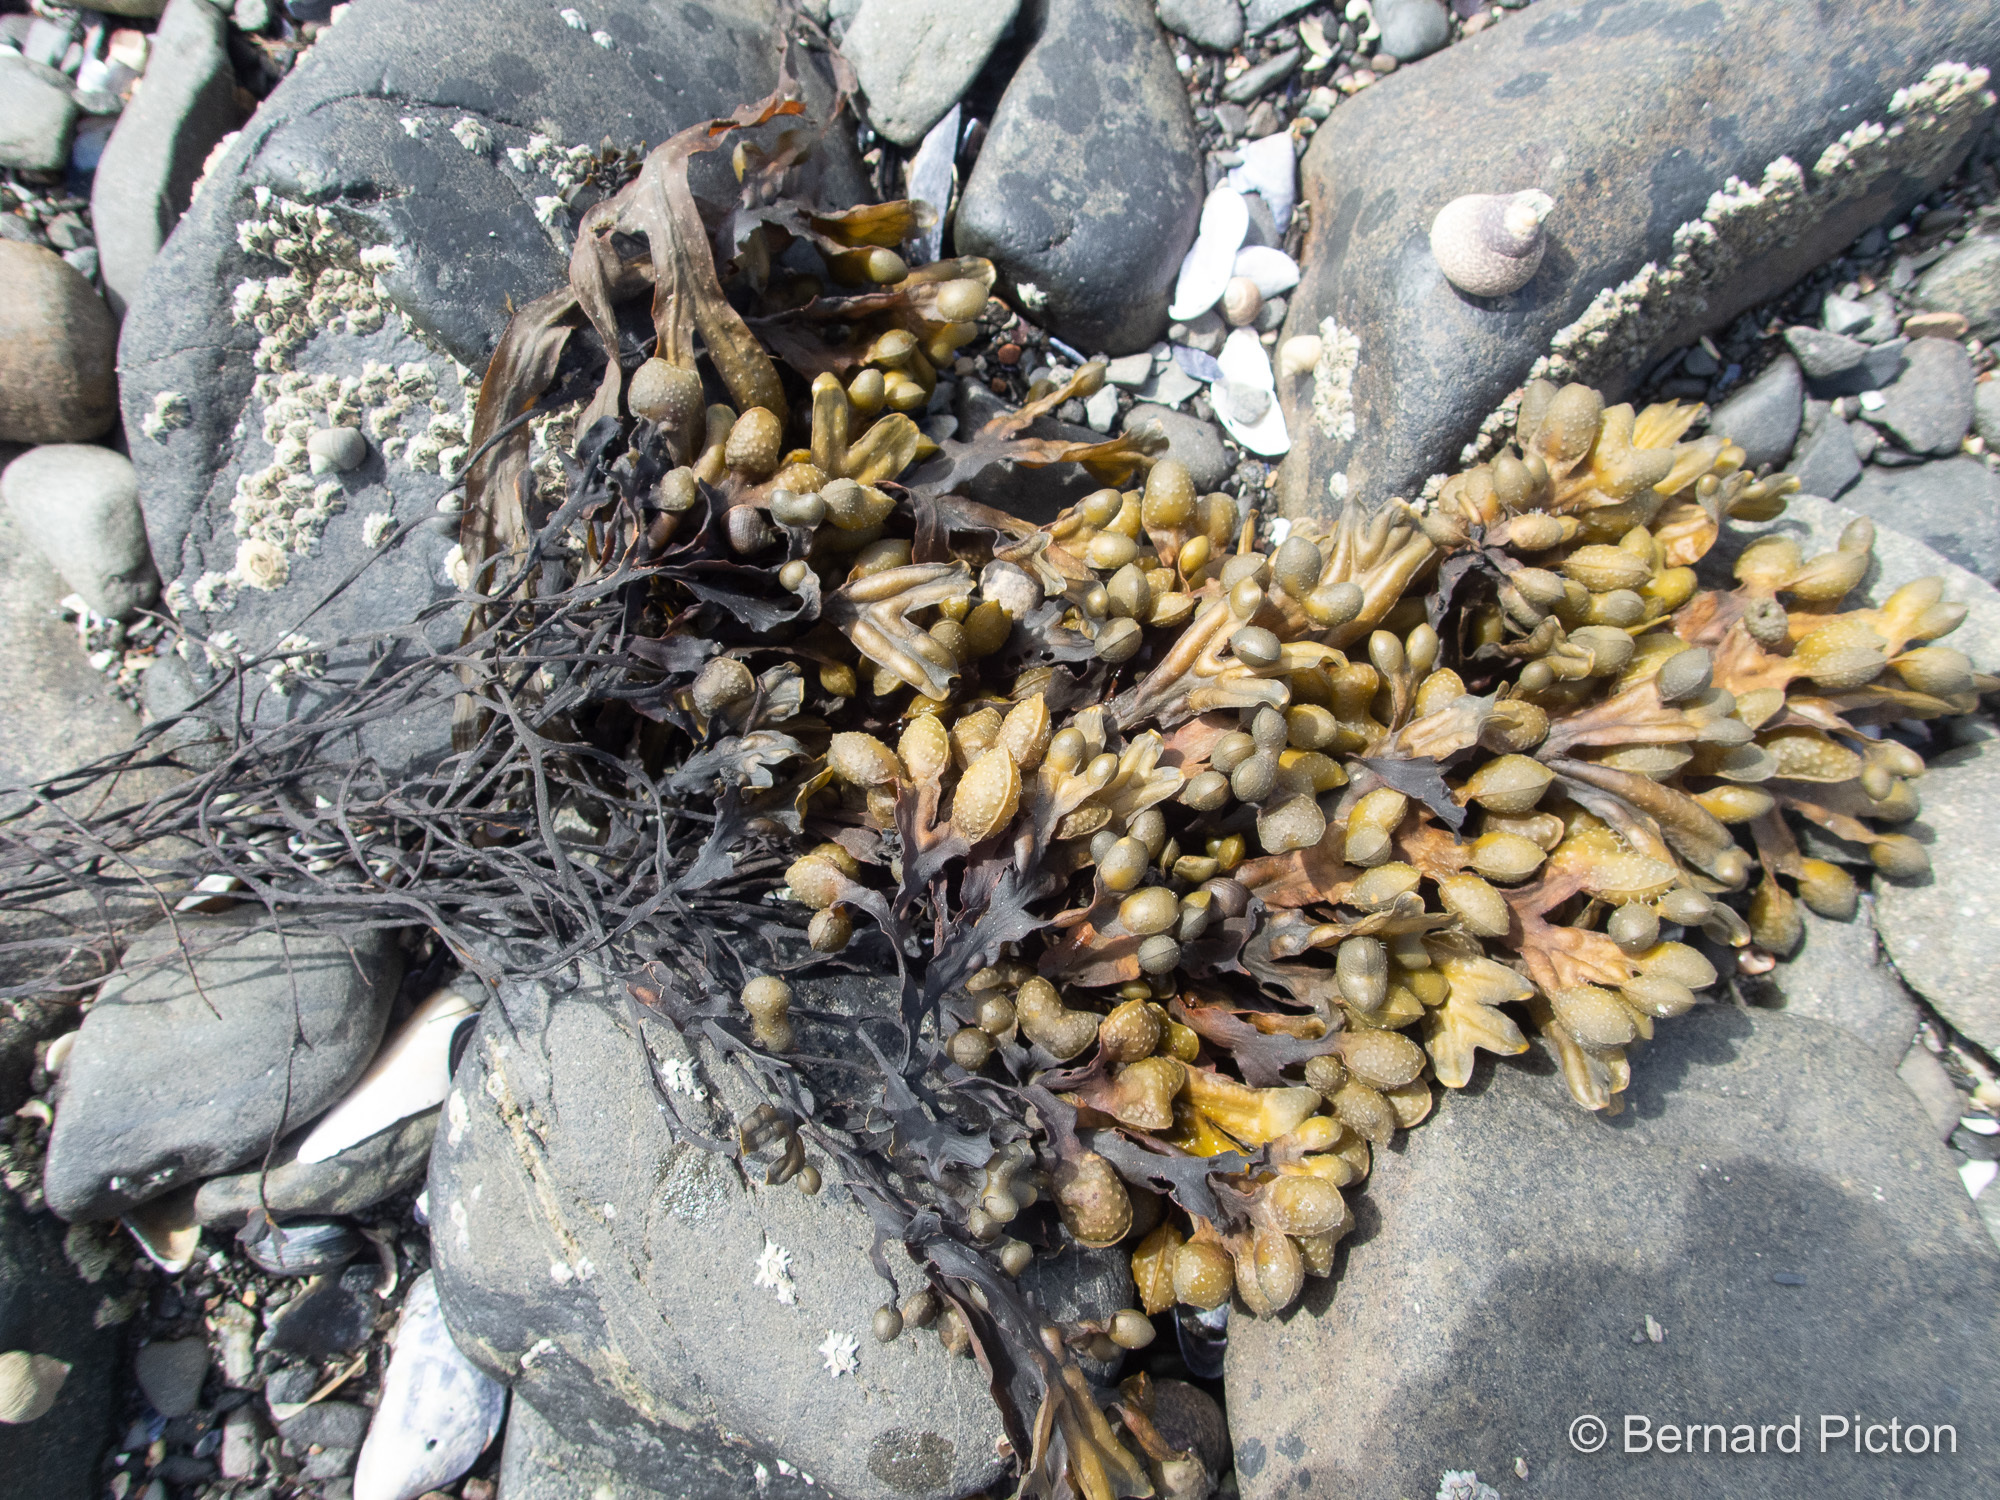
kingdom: Chromista
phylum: Ochrophyta
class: Phaeophyceae
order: Fucales
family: Fucaceae
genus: Fucus
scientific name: Fucus spiralis
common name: Spiral wrack
